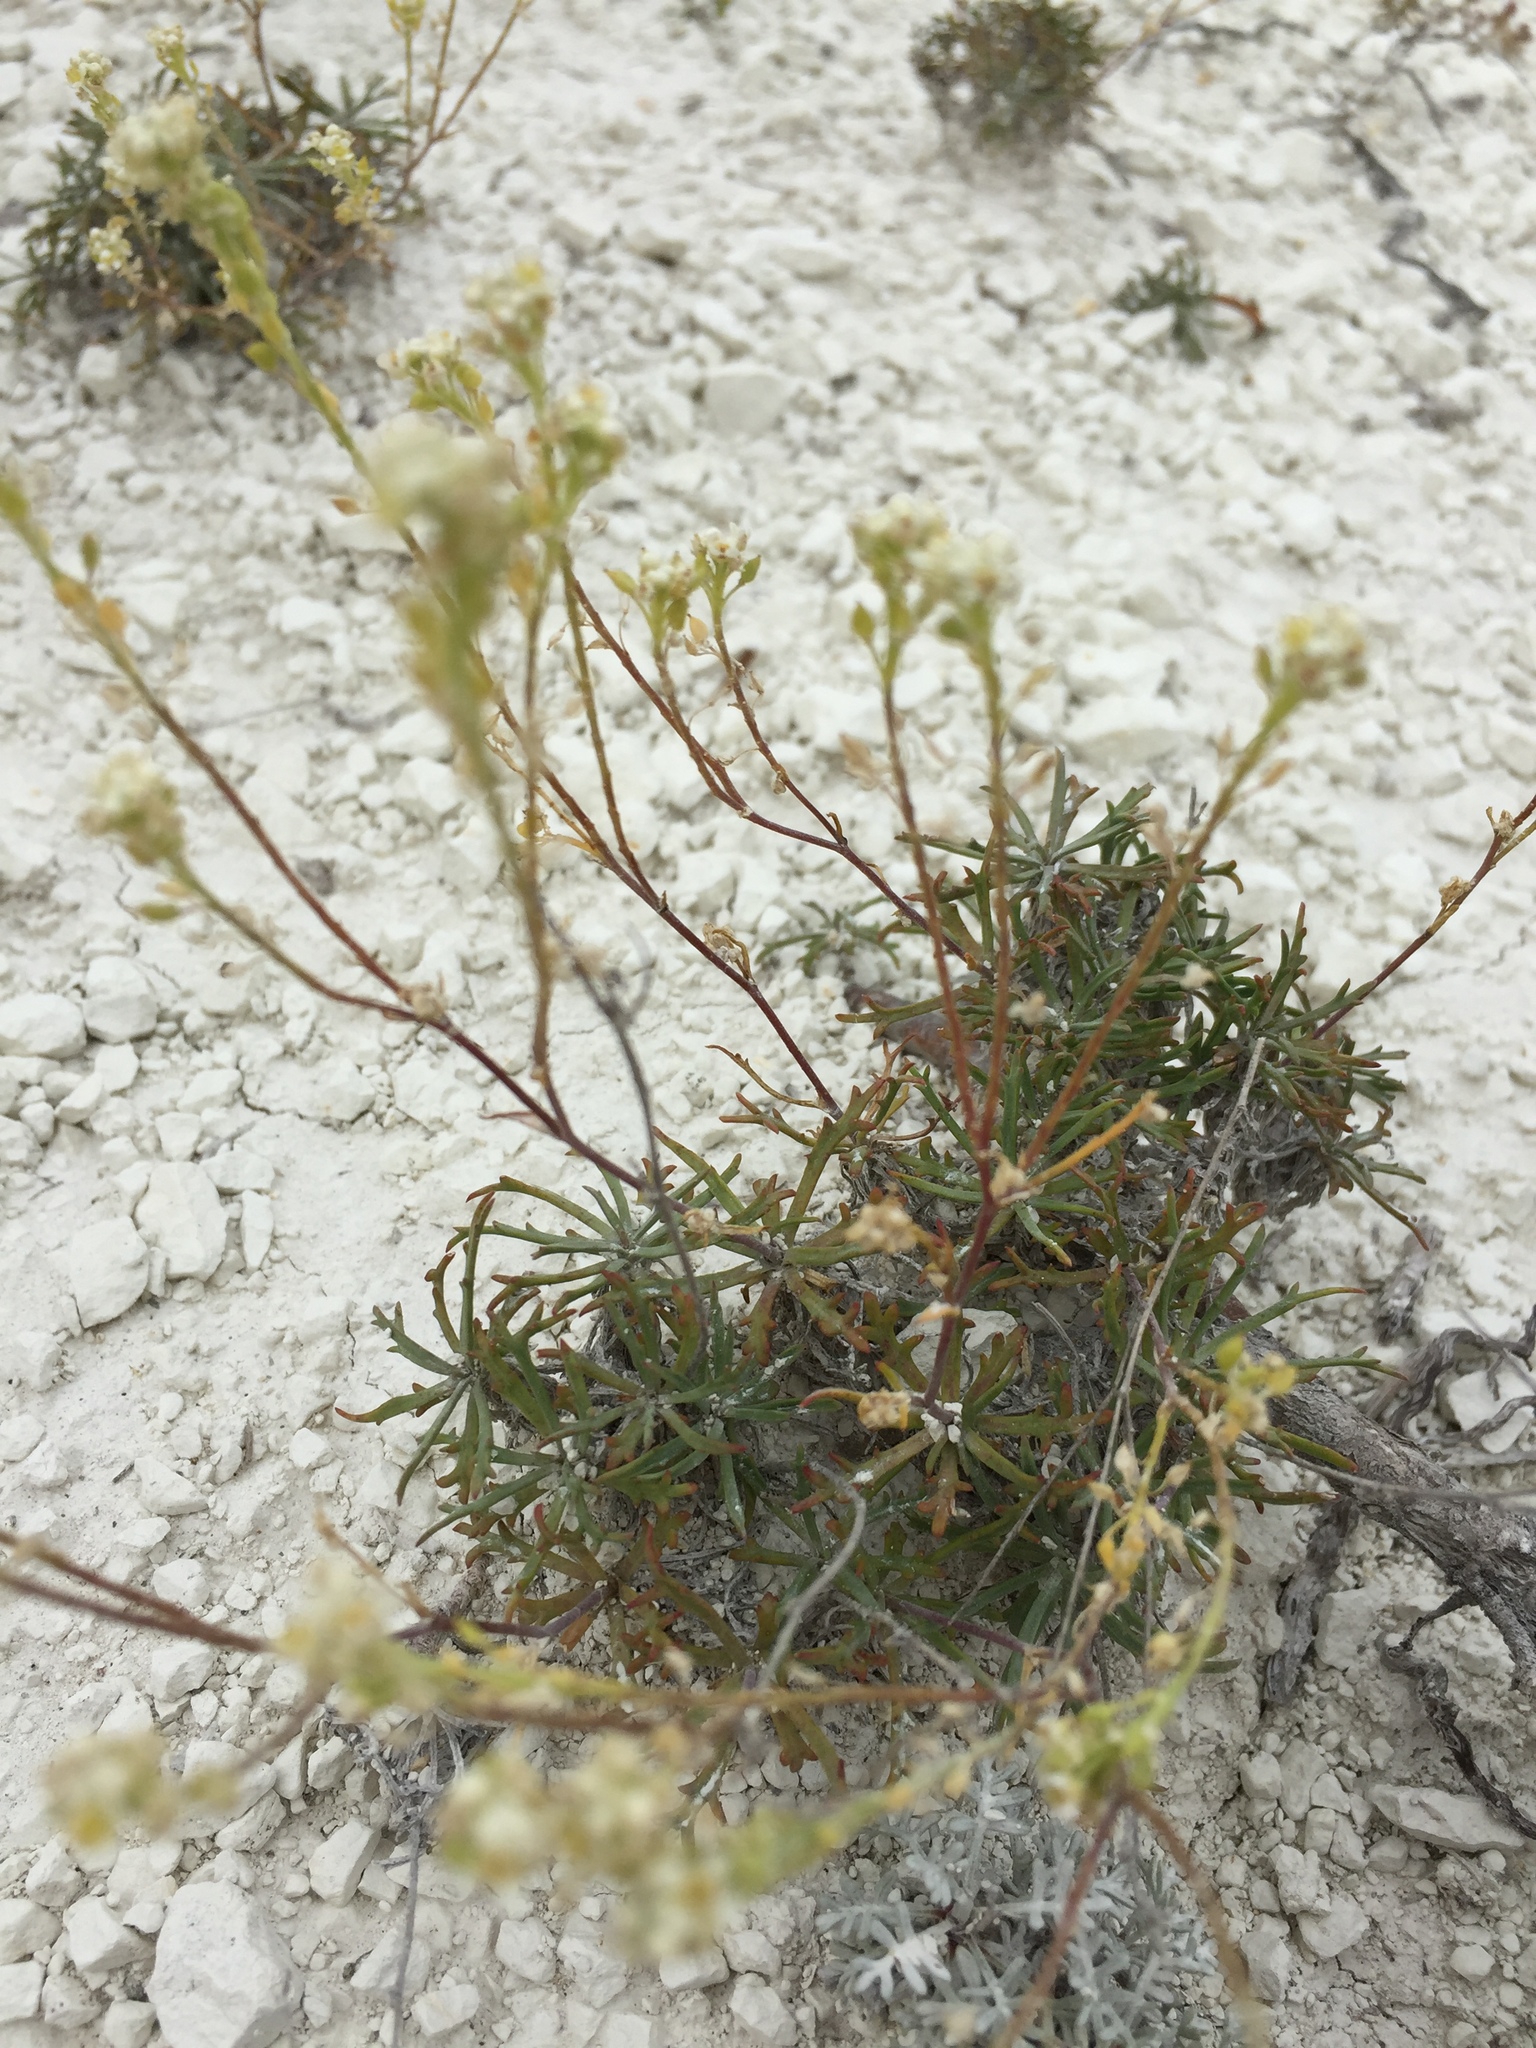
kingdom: Plantae
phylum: Tracheophyta
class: Magnoliopsida
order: Brassicales
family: Brassicaceae
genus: Lepidium
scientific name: Lepidium meyeri
